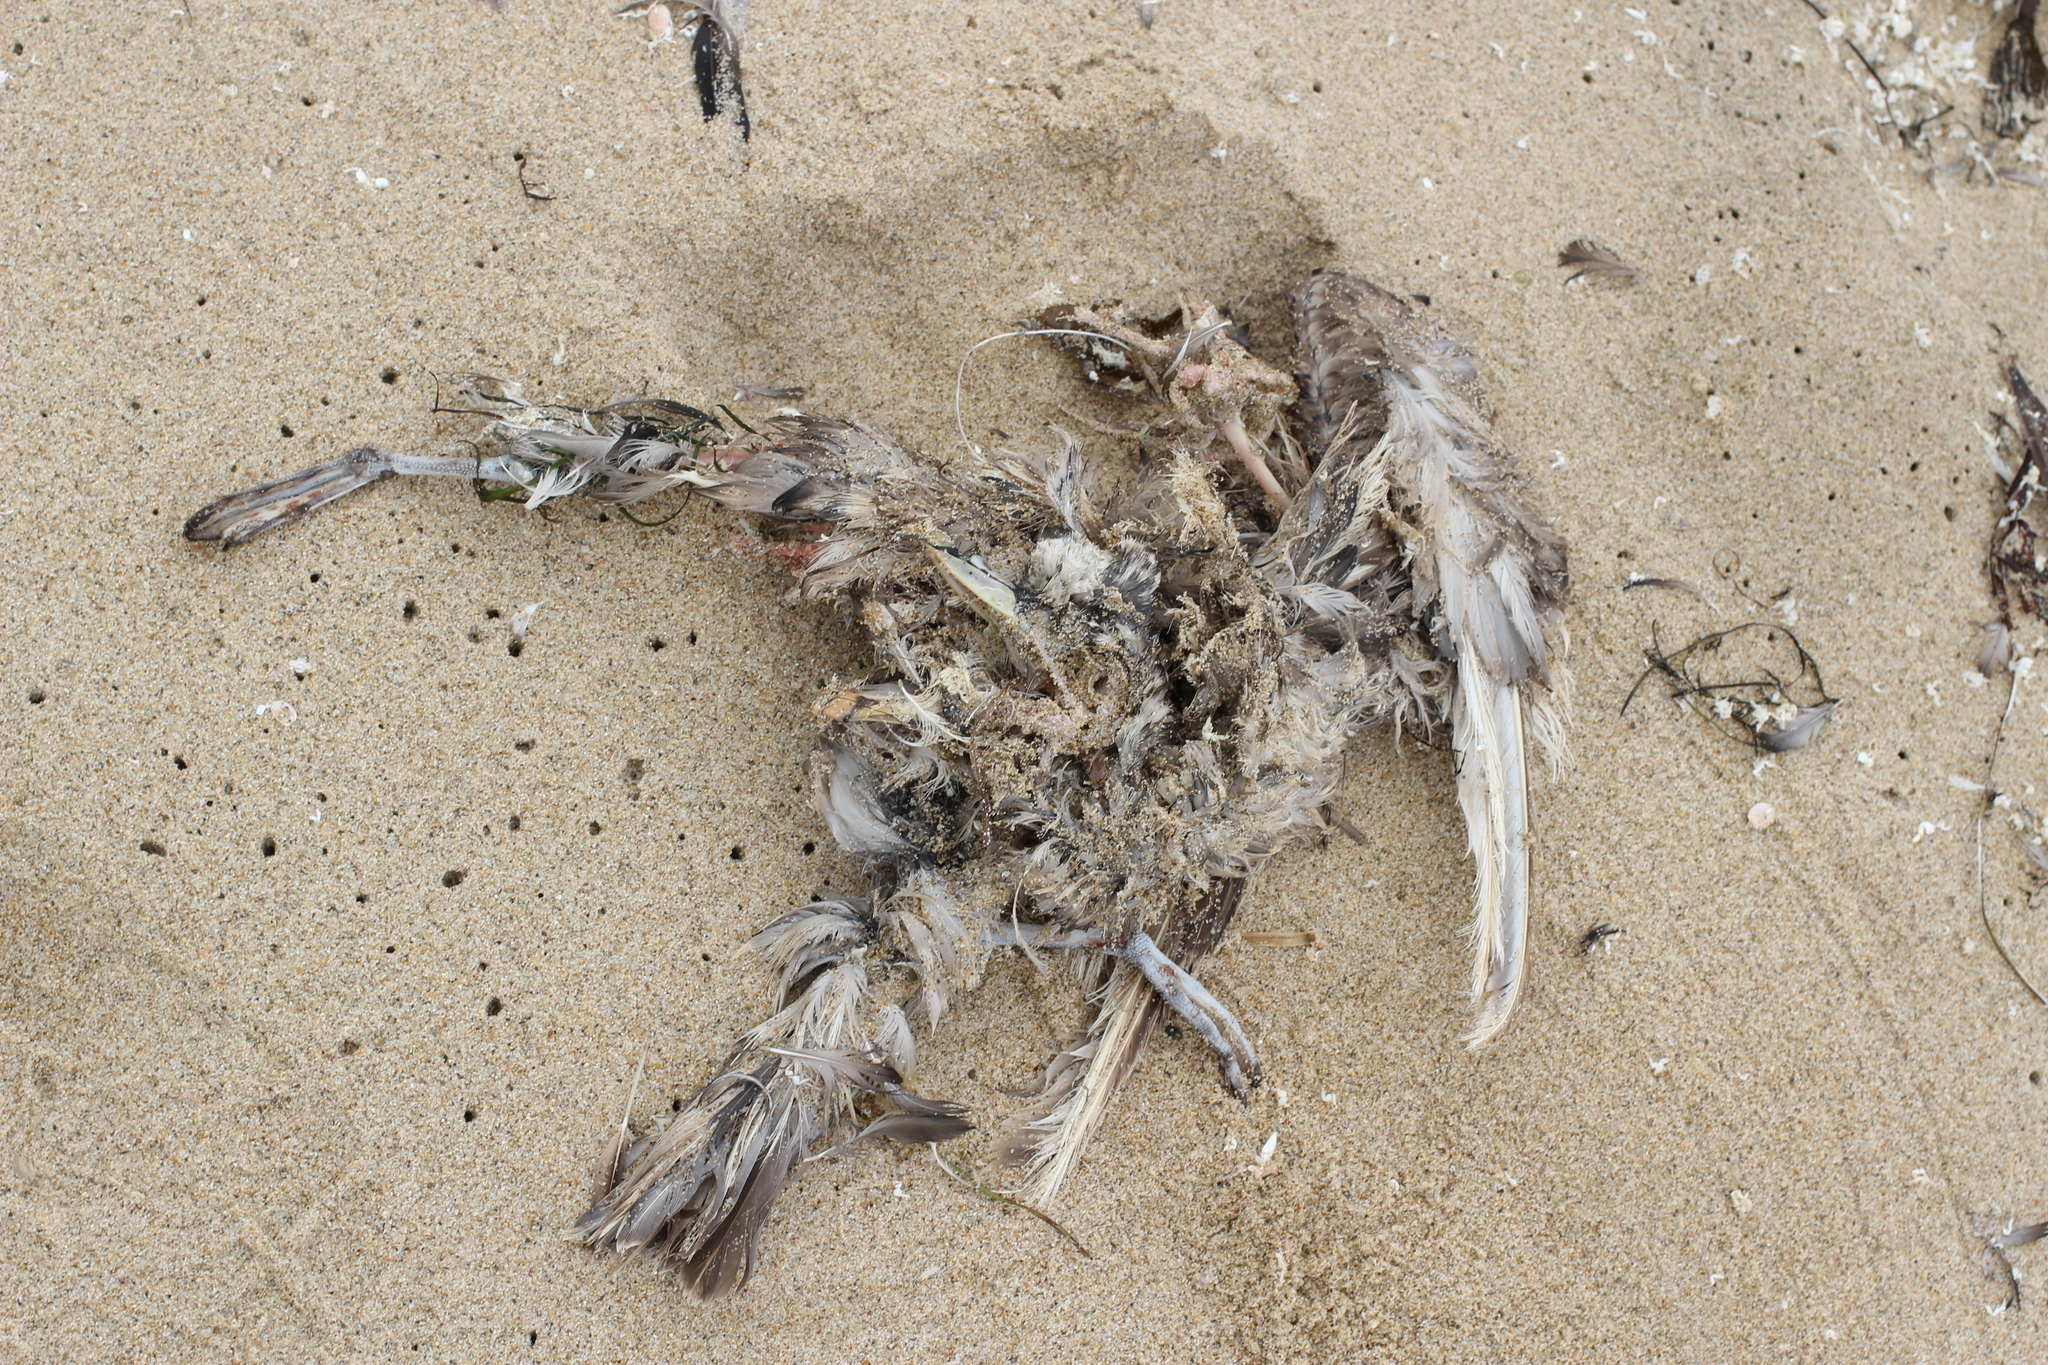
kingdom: Animalia
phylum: Chordata
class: Aves
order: Procellariiformes
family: Procellariidae
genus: Fulmarus
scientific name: Fulmarus glacialis
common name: Northern fulmar
